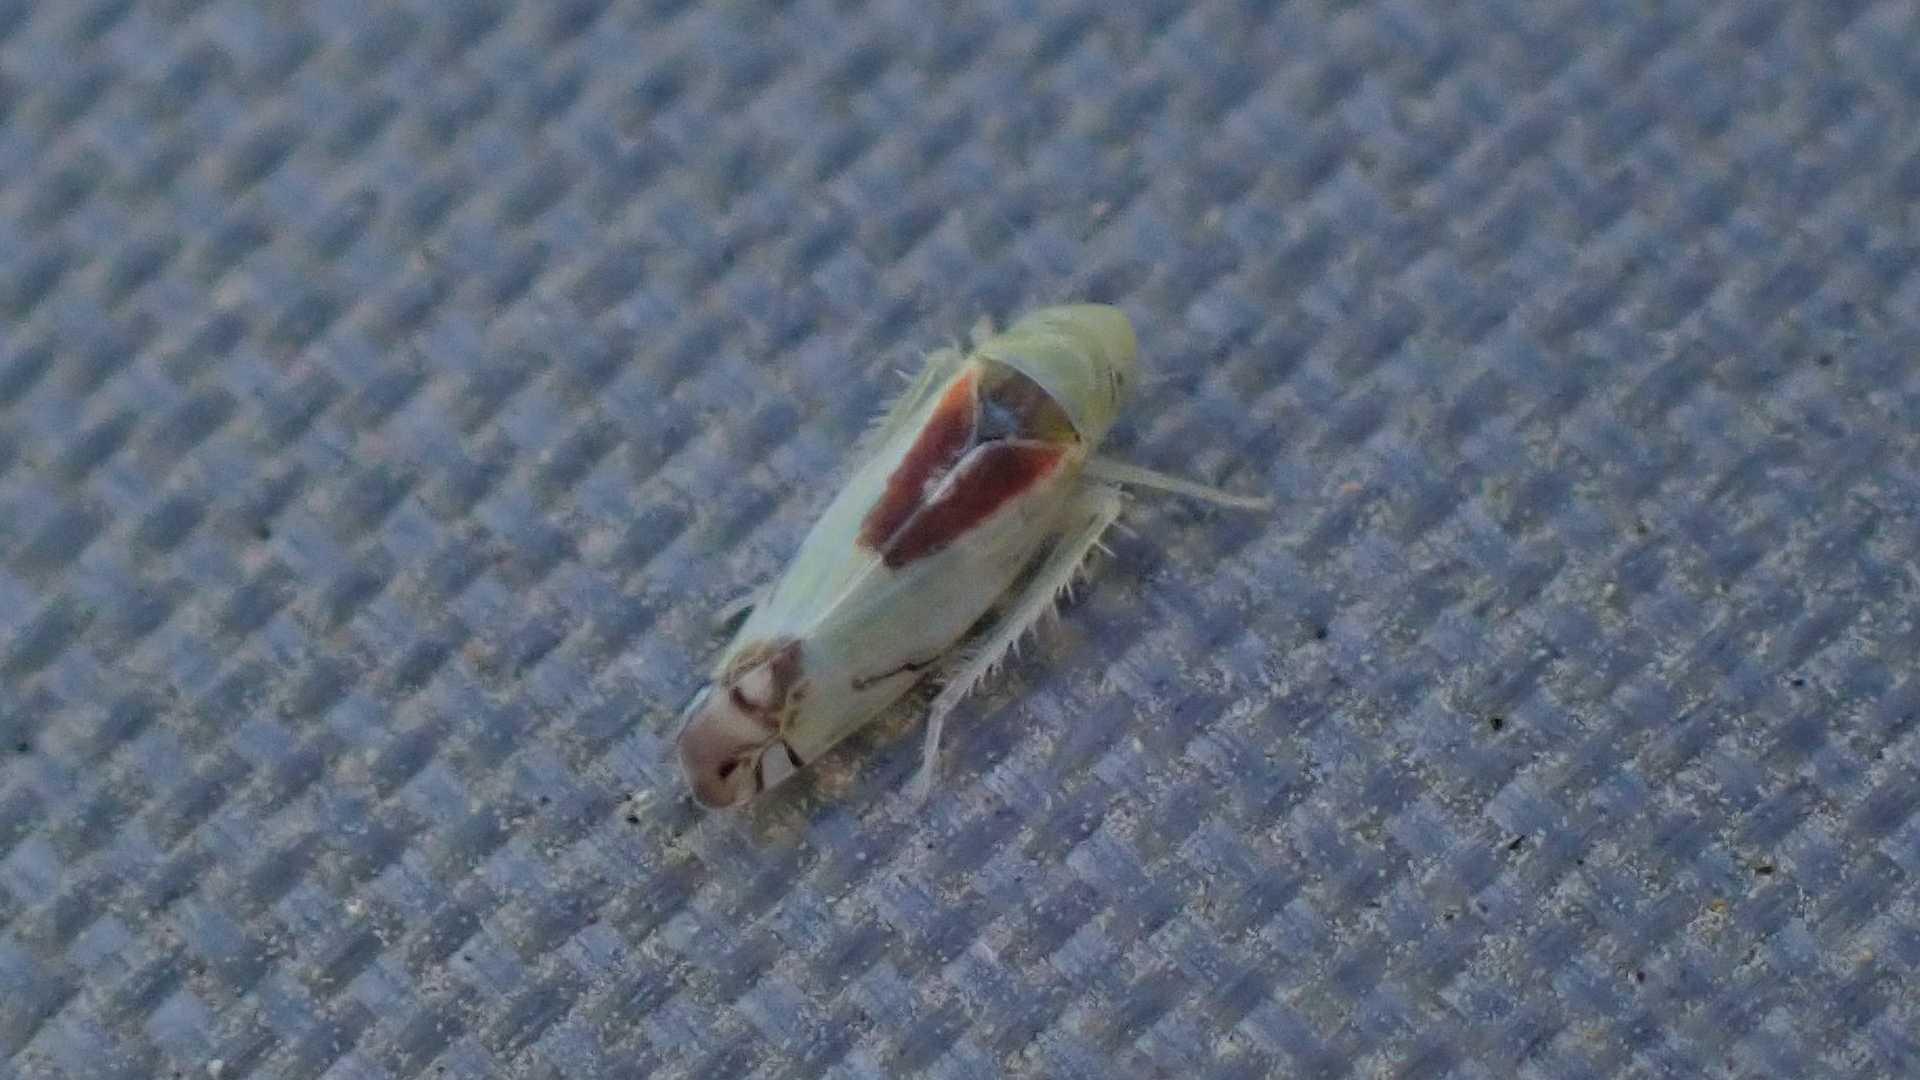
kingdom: Animalia
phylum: Arthropoda
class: Insecta
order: Hemiptera
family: Cicadellidae
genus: Zyginella
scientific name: Zyginella pulchra
